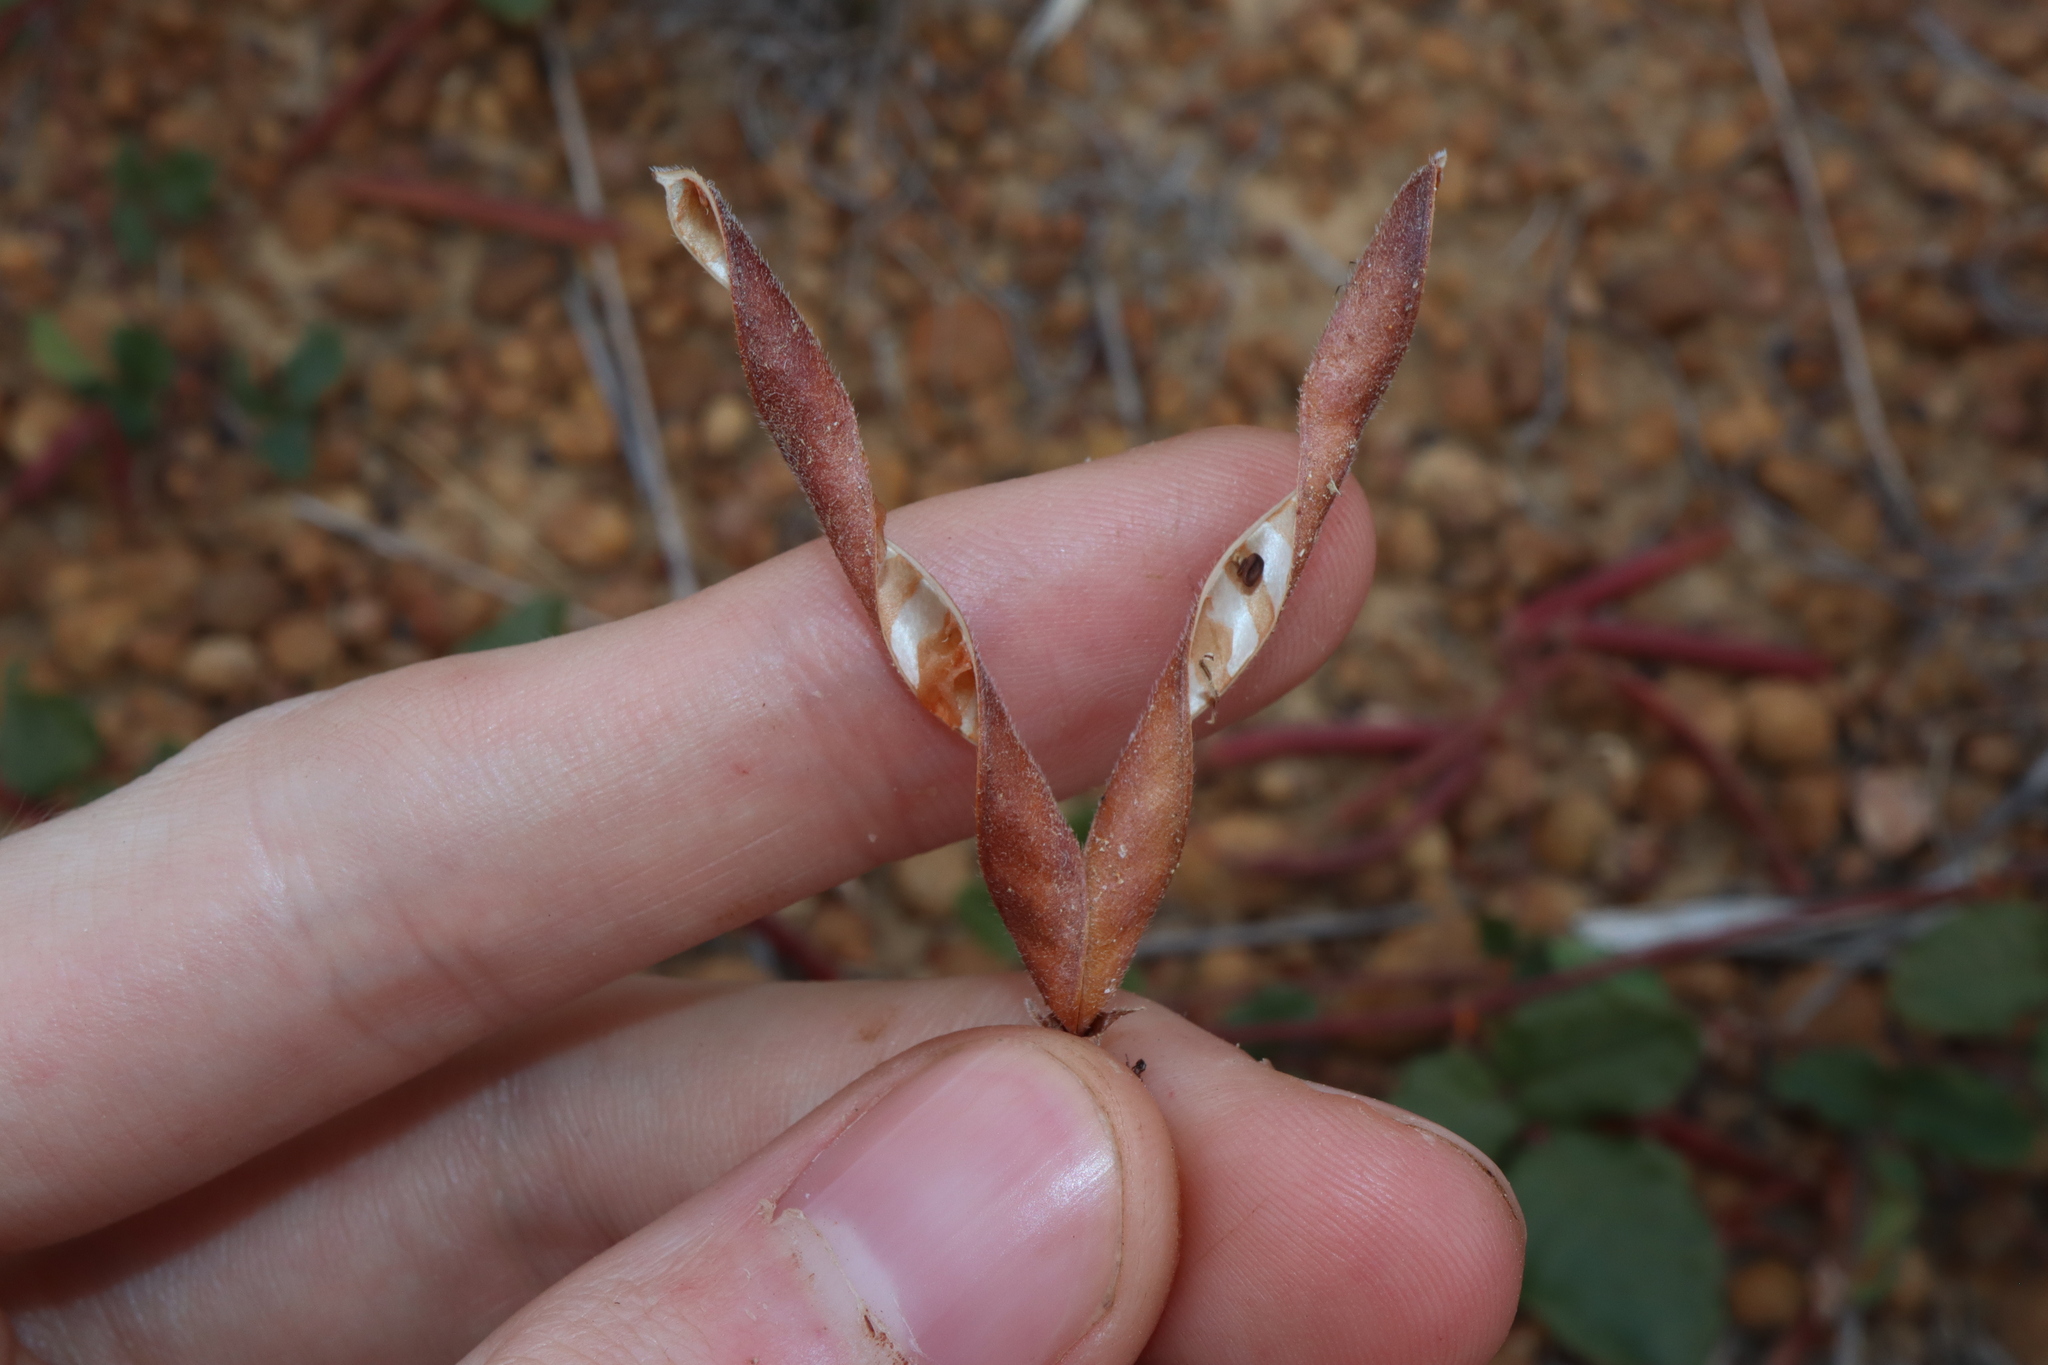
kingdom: Plantae
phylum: Tracheophyta
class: Magnoliopsida
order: Fabales
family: Fabaceae
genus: Kennedia
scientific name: Kennedia coccinea
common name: Coralvine
